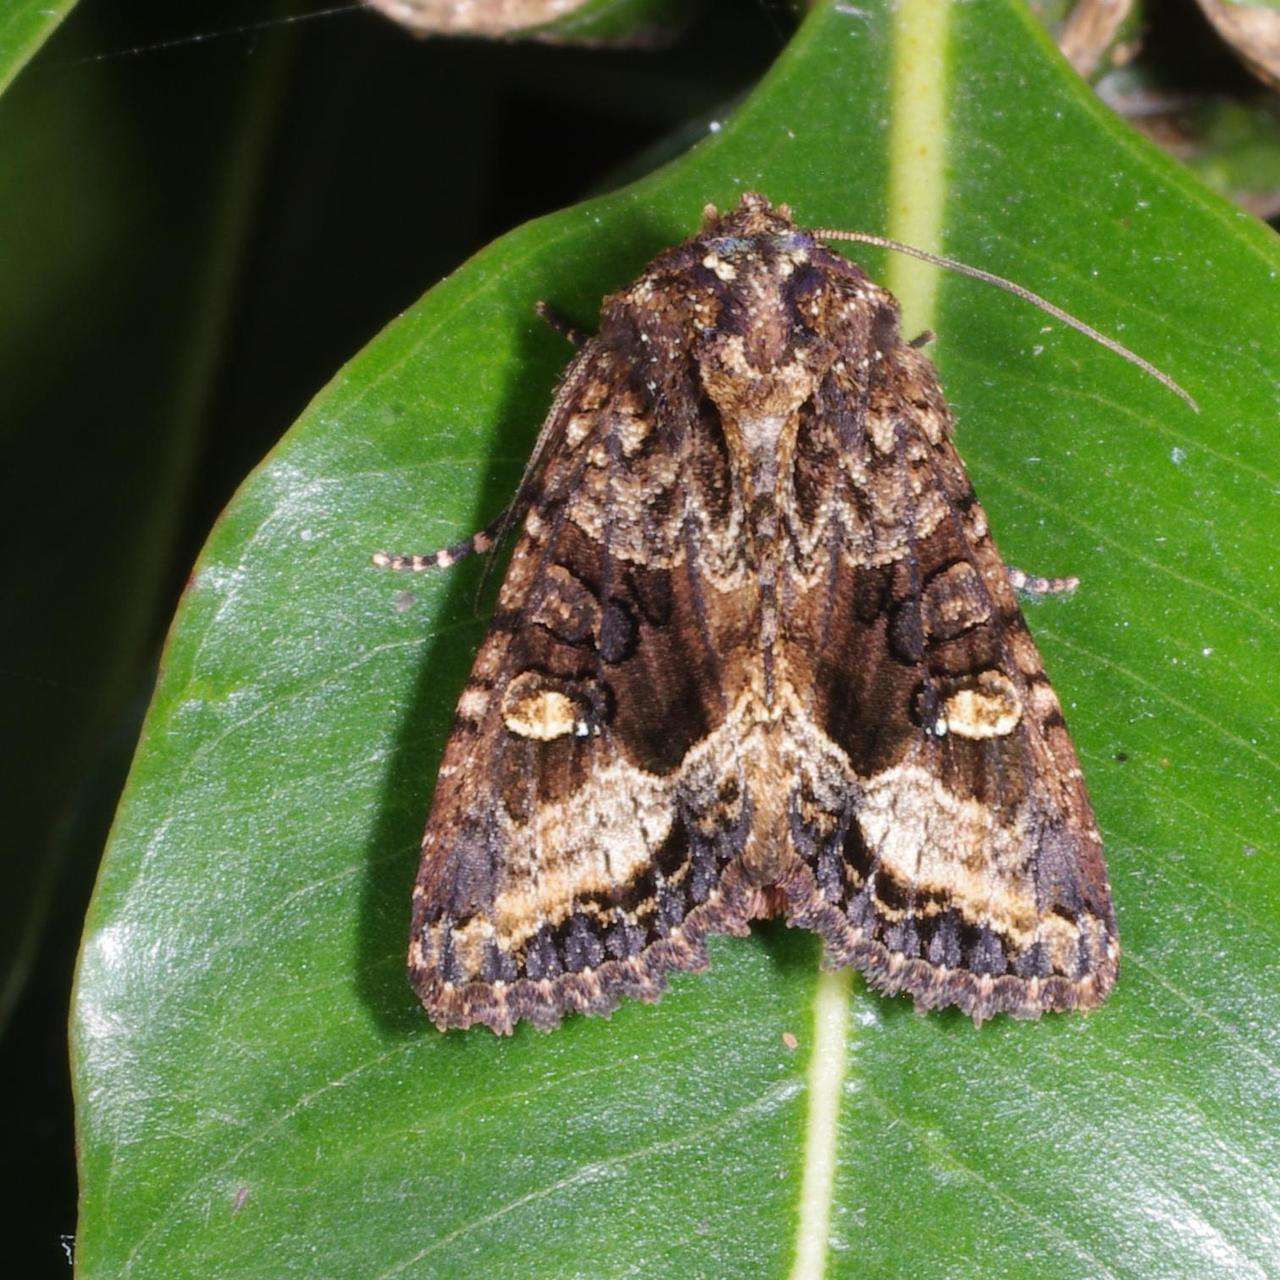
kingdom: Animalia
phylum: Arthropoda
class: Insecta
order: Lepidoptera
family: Noctuidae
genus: Neumichtis
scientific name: Neumichtis saliaris
